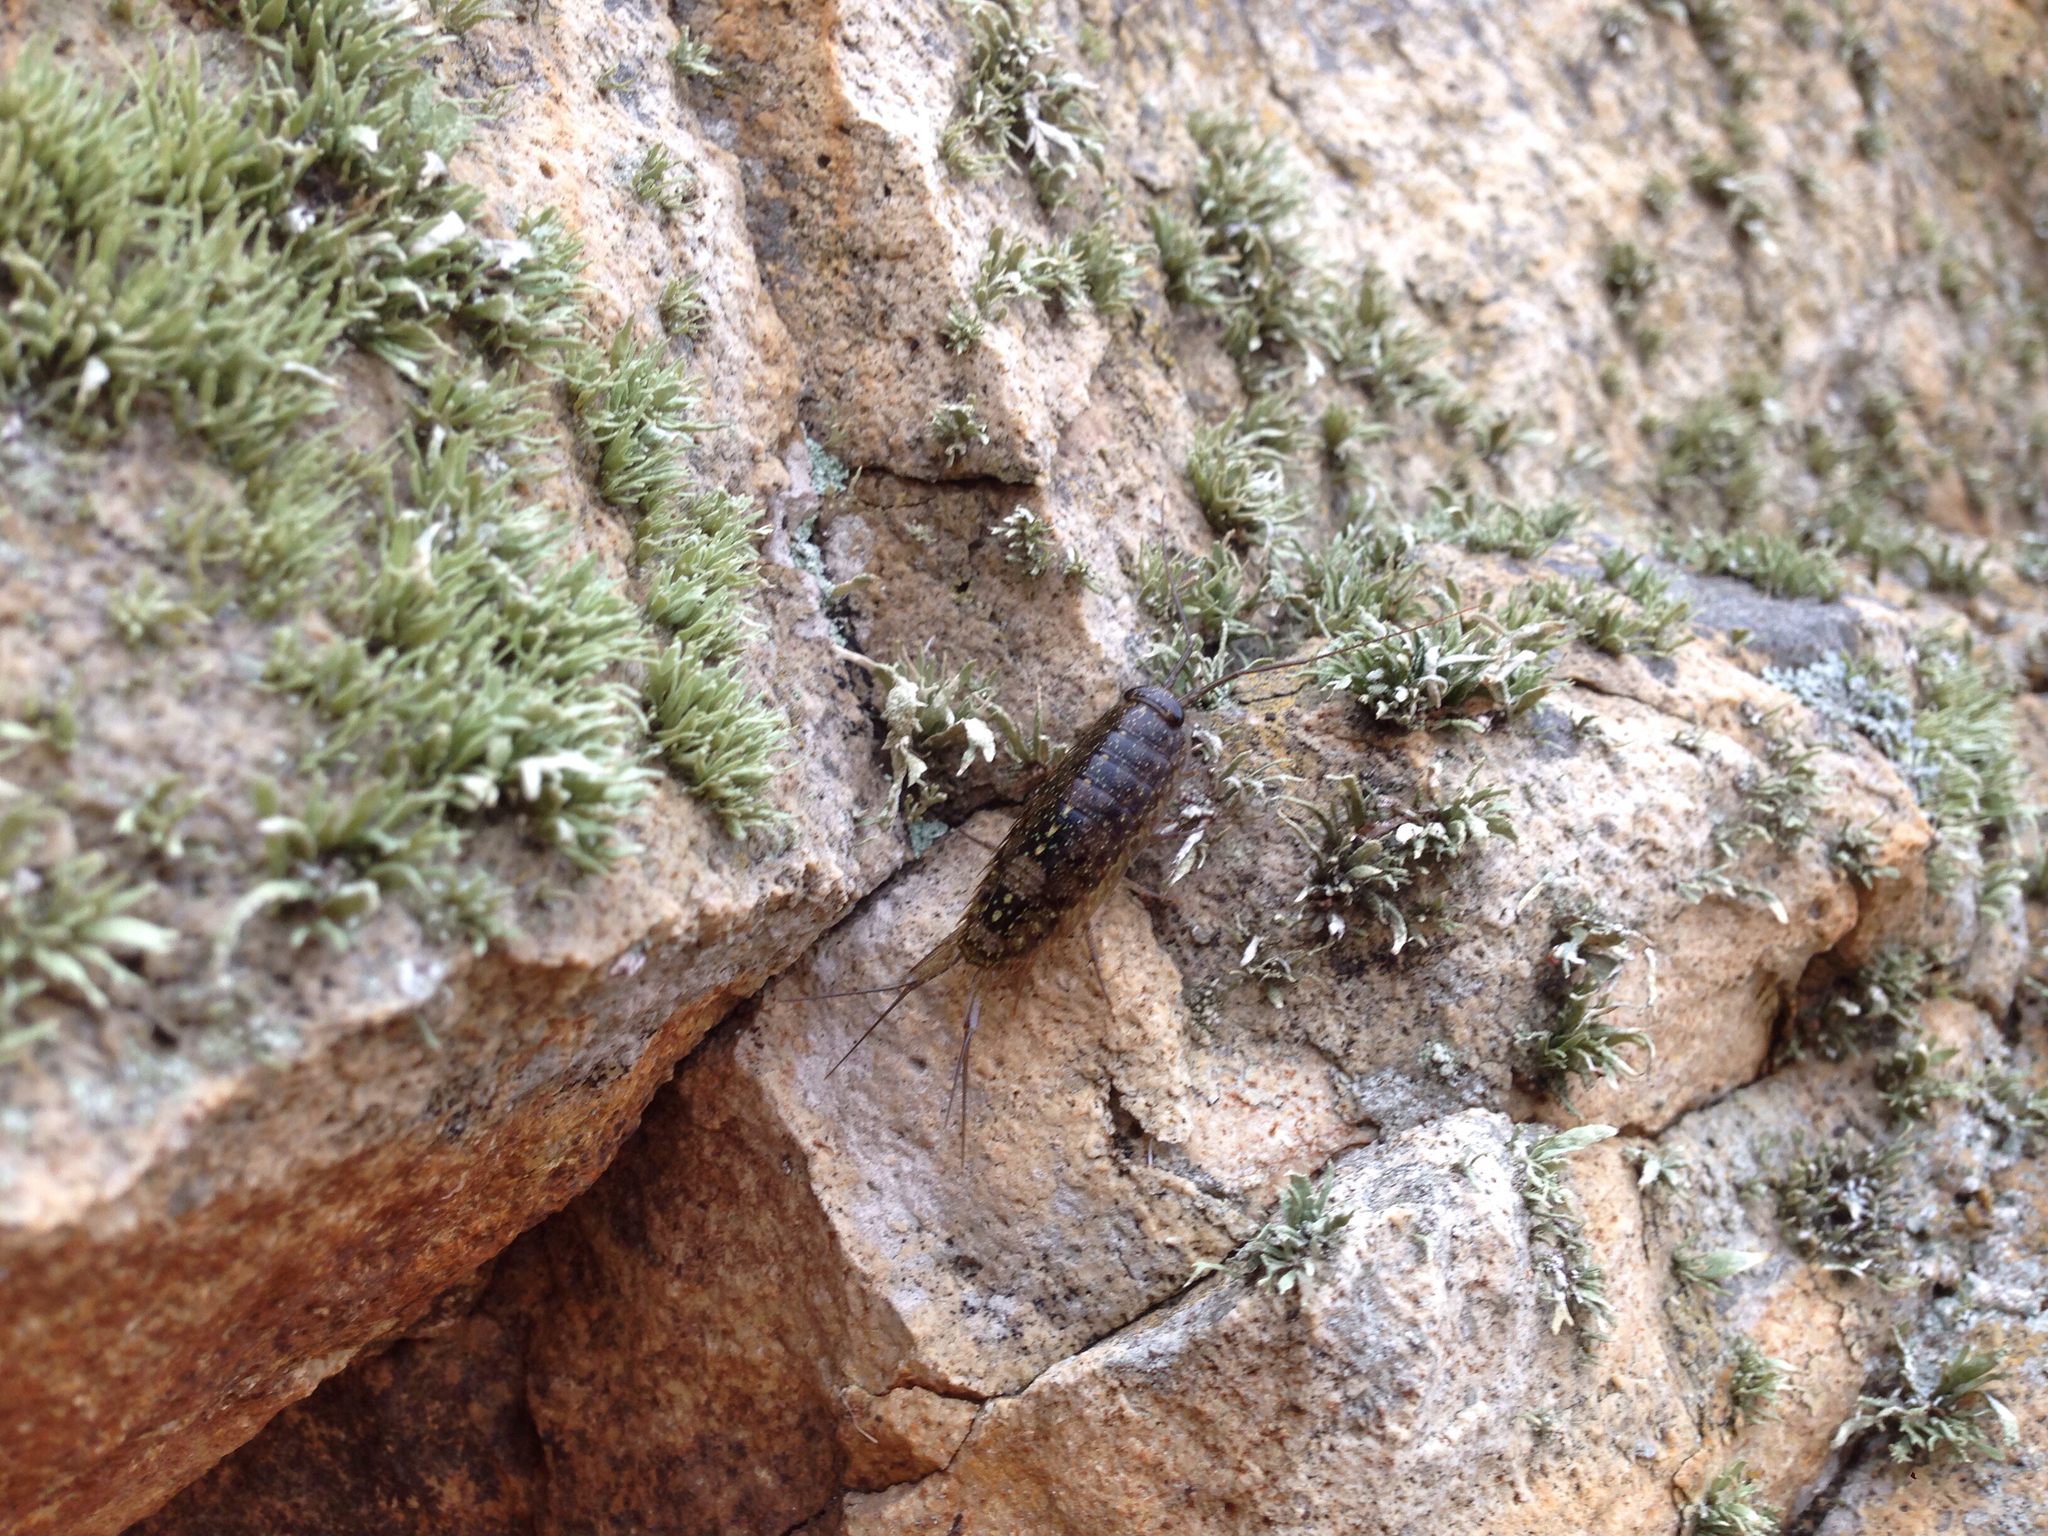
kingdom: Animalia
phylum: Arthropoda
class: Malacostraca
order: Isopoda
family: Ligiidae
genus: Ligia
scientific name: Ligia exotica
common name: Wharf roach
